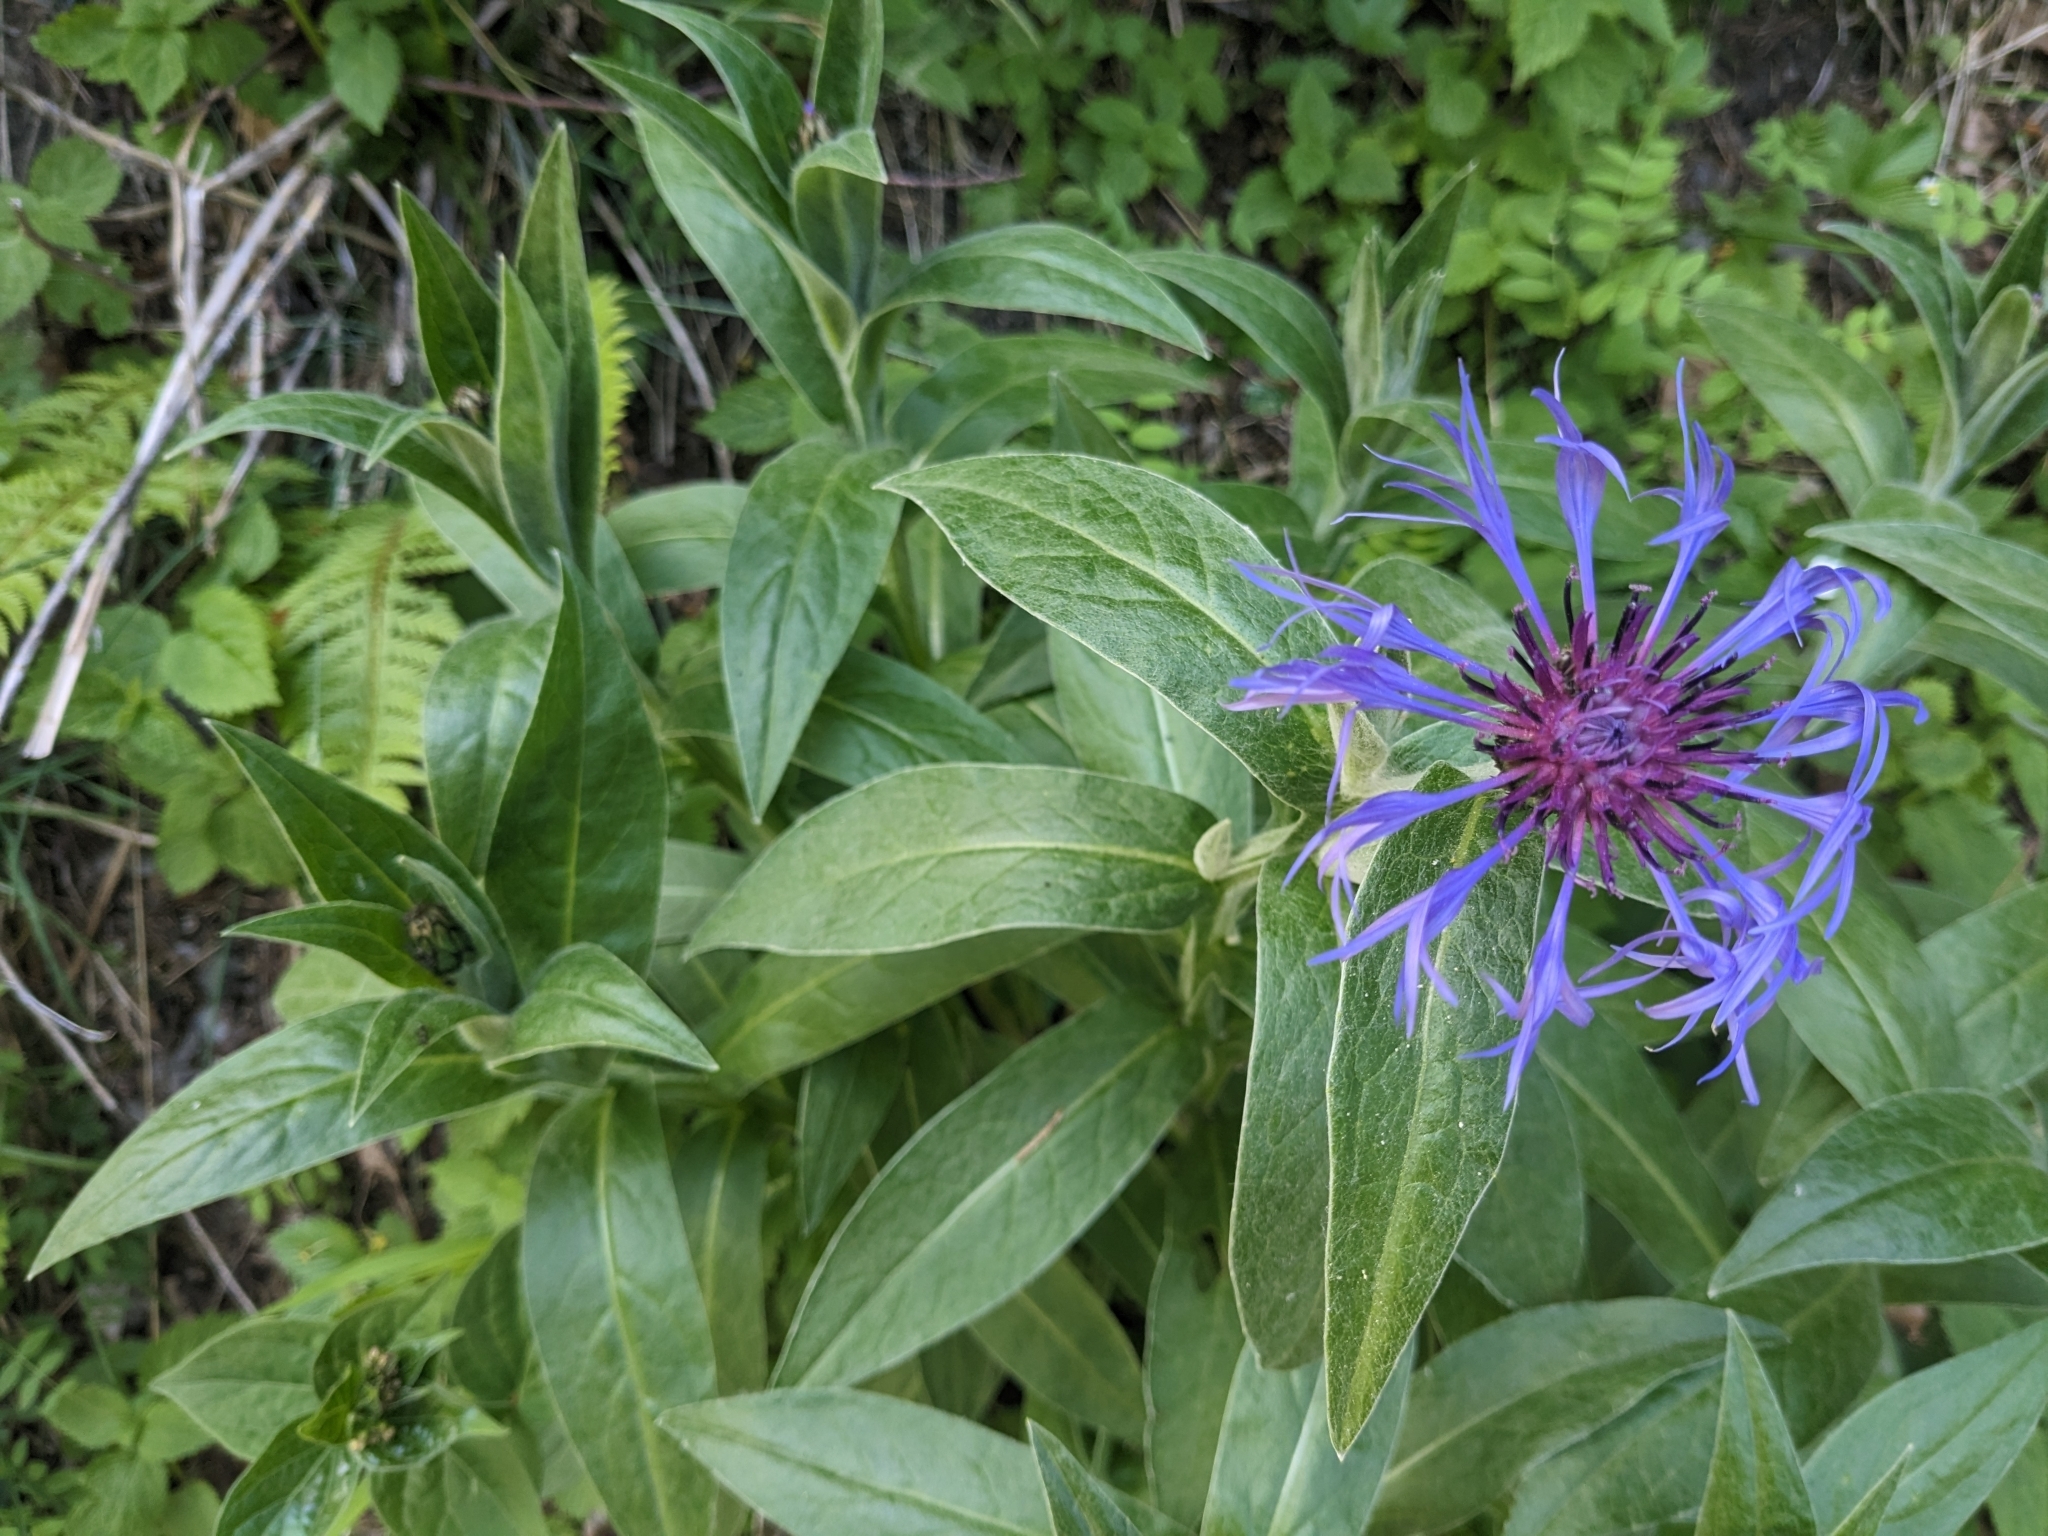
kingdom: Plantae
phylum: Tracheophyta
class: Magnoliopsida
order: Asterales
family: Asteraceae
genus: Centaurea
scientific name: Centaurea montana
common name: Perennial cornflower
